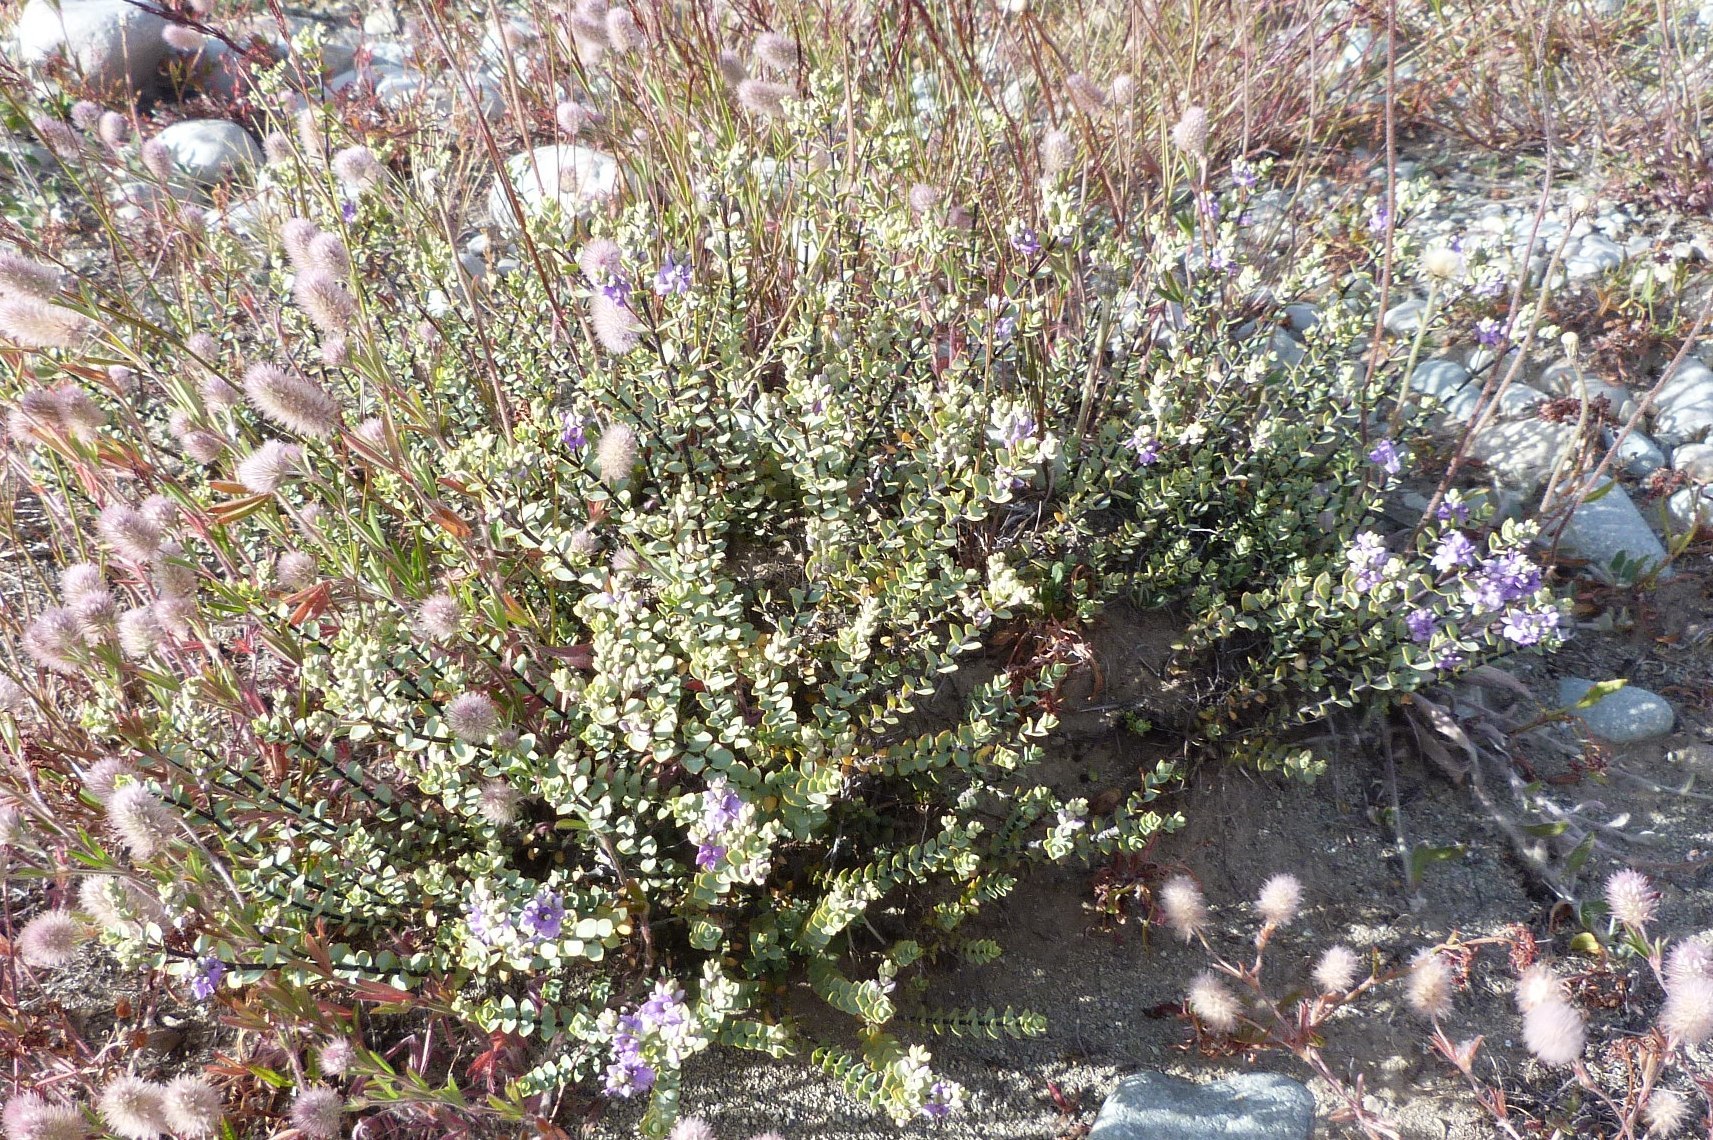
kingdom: Plantae
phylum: Tracheophyta
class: Magnoliopsida
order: Lamiales
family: Plantaginaceae
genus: Veronica
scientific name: Veronica pimeleoides
